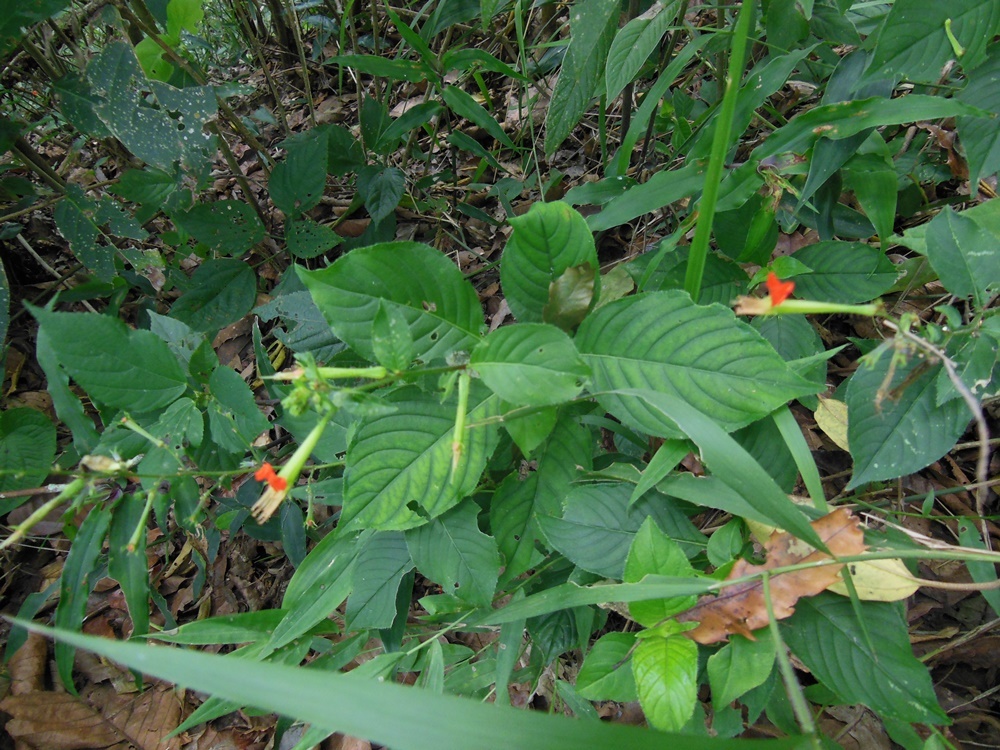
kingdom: Plantae
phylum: Tracheophyta
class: Magnoliopsida
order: Myrtales
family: Lythraceae
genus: Cuphea
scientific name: Cuphea nudicostata
